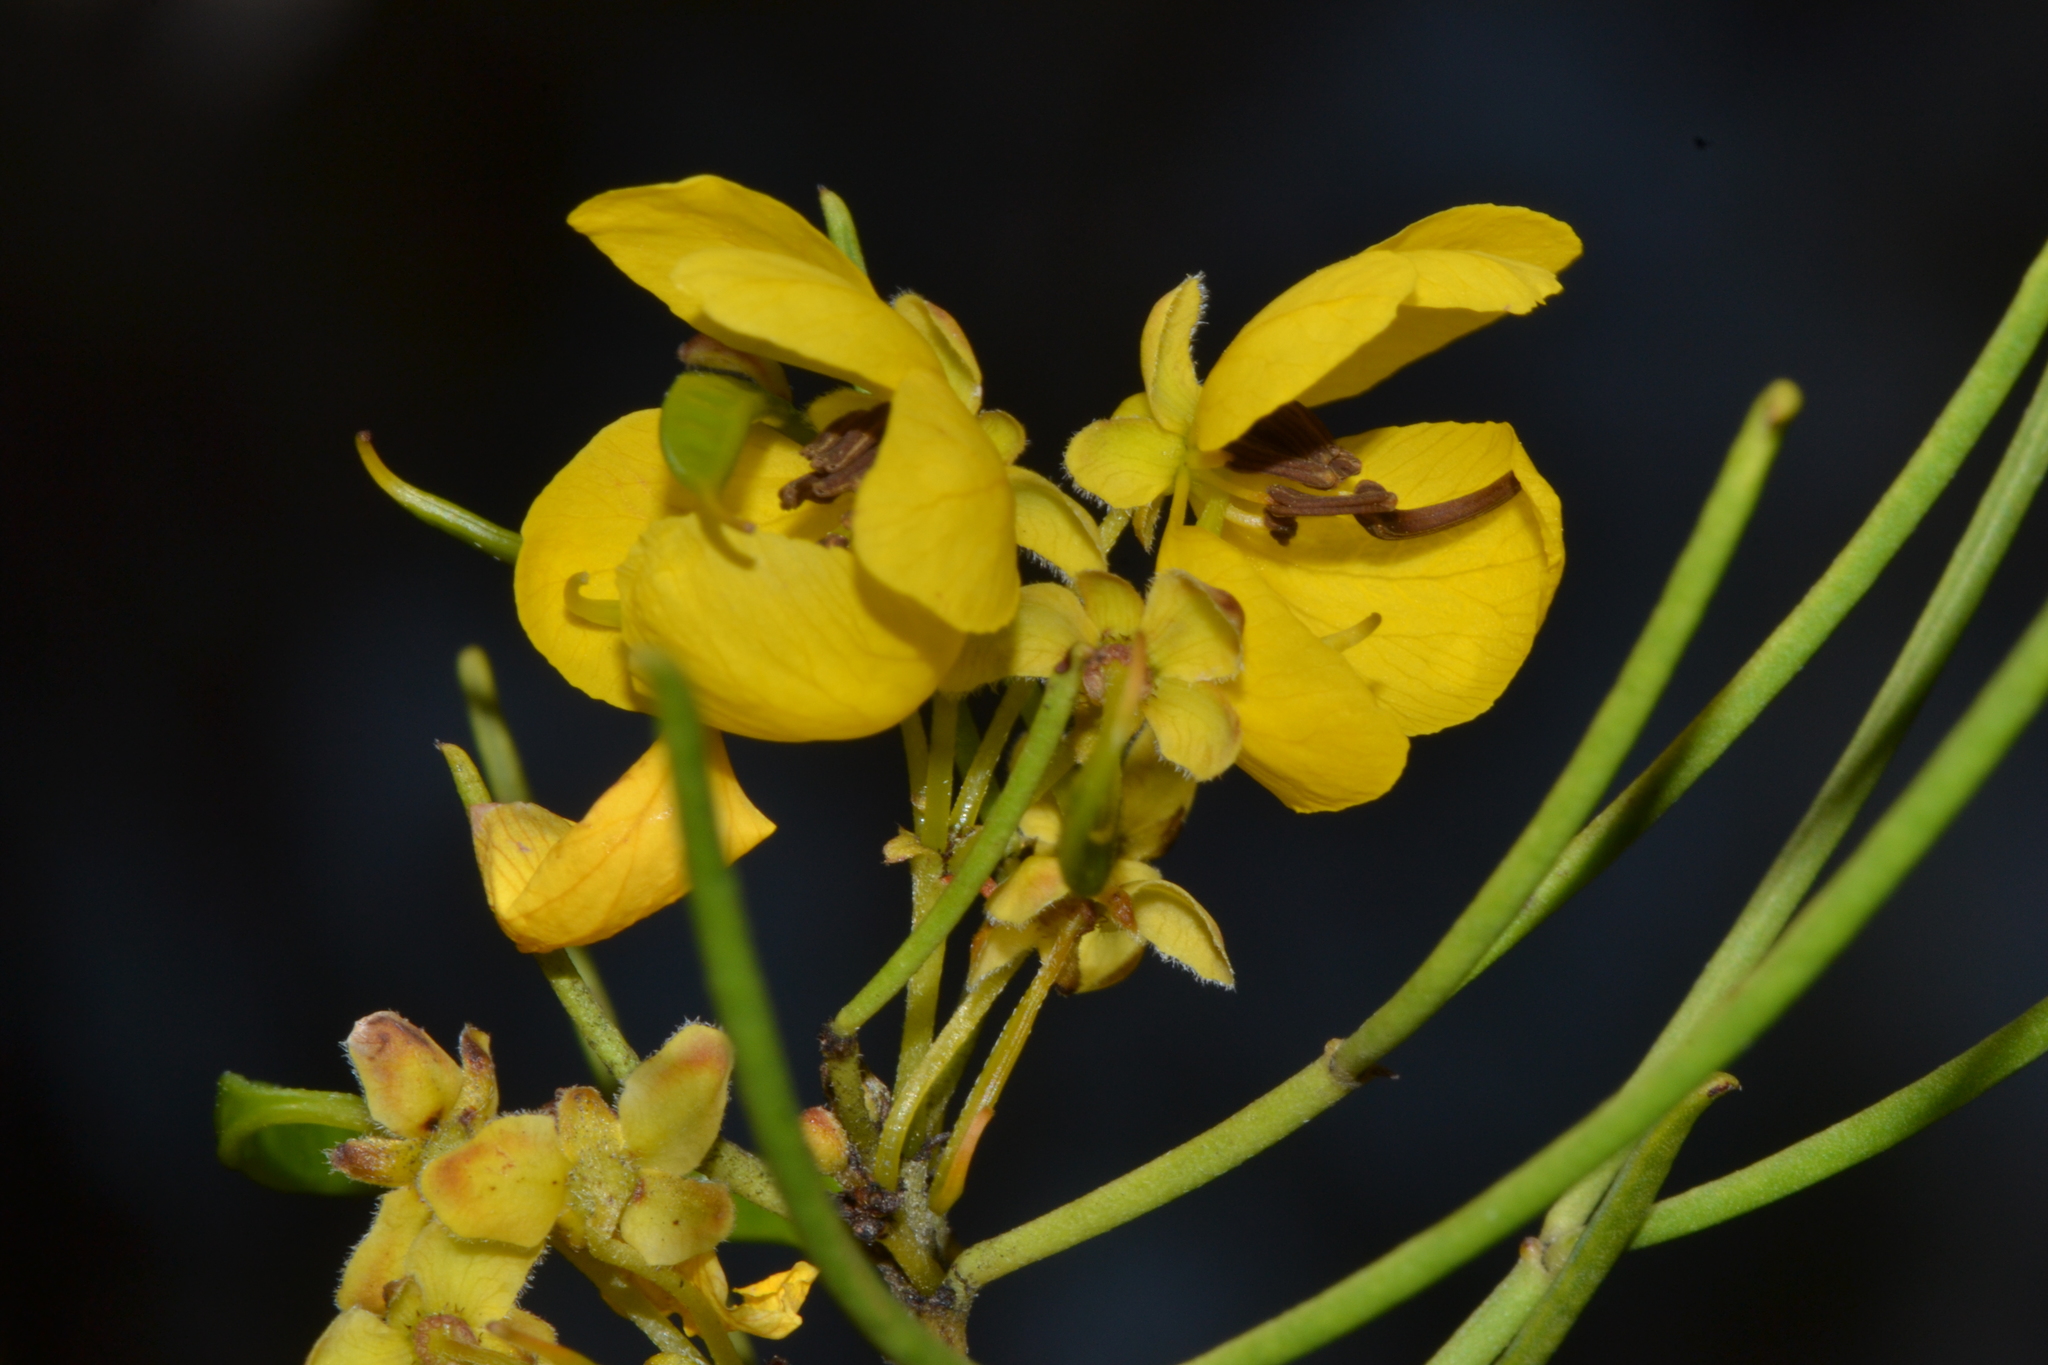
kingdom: Plantae
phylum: Tracheophyta
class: Magnoliopsida
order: Fabales
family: Fabaceae
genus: Senna
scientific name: Senna artemisioides
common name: Burnt-leaved acacia
